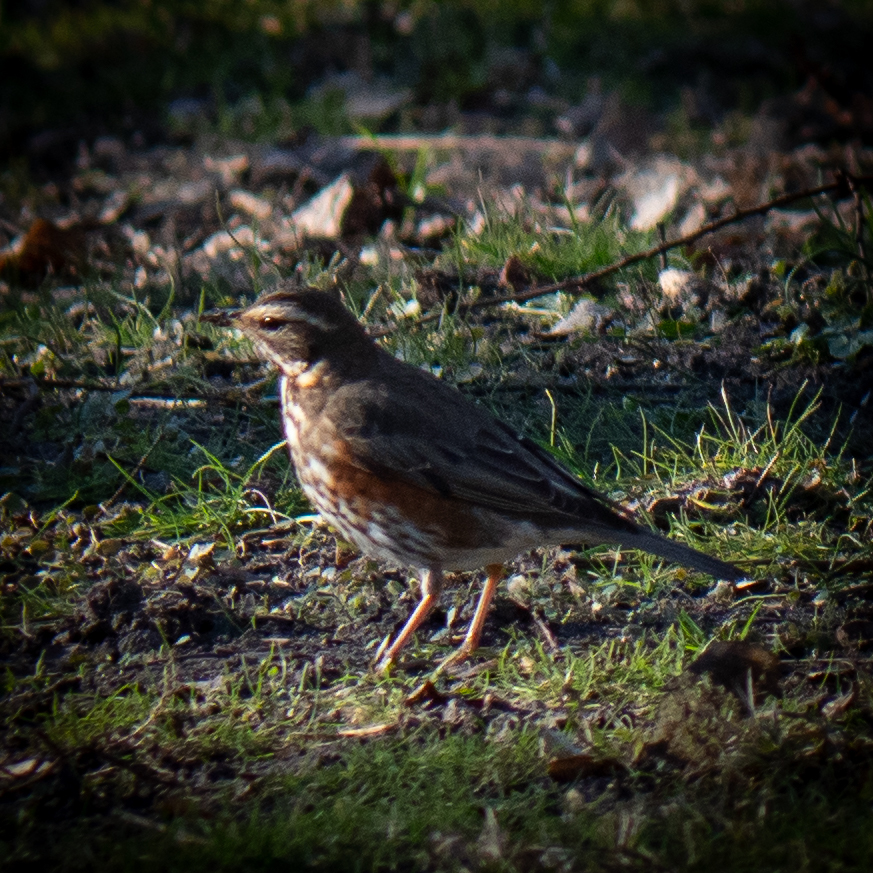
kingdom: Animalia
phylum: Chordata
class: Aves
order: Passeriformes
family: Turdidae
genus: Turdus
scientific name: Turdus iliacus
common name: Redwing
